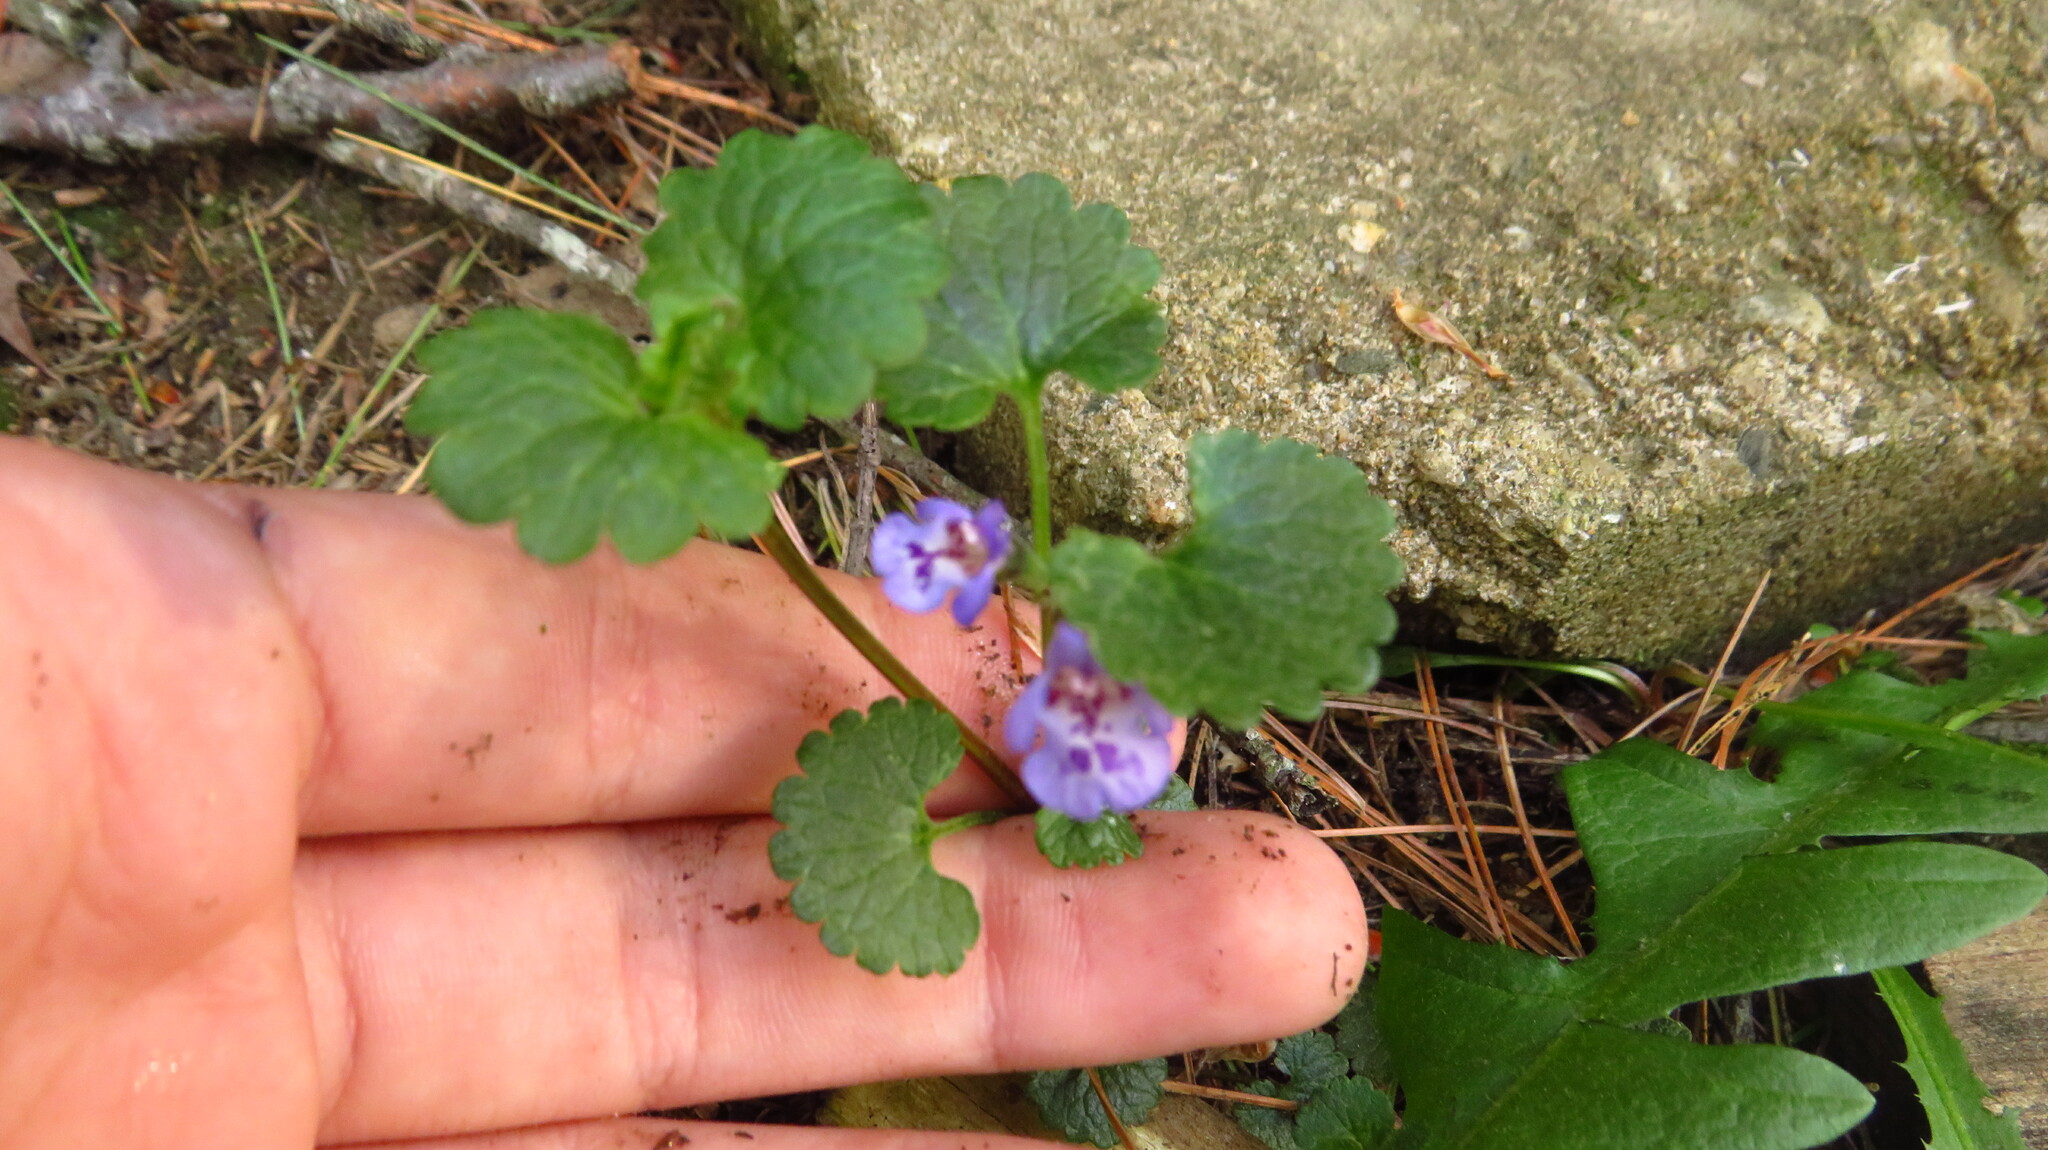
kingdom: Plantae
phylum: Tracheophyta
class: Magnoliopsida
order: Lamiales
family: Lamiaceae
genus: Glechoma
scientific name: Glechoma hederacea
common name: Ground ivy
